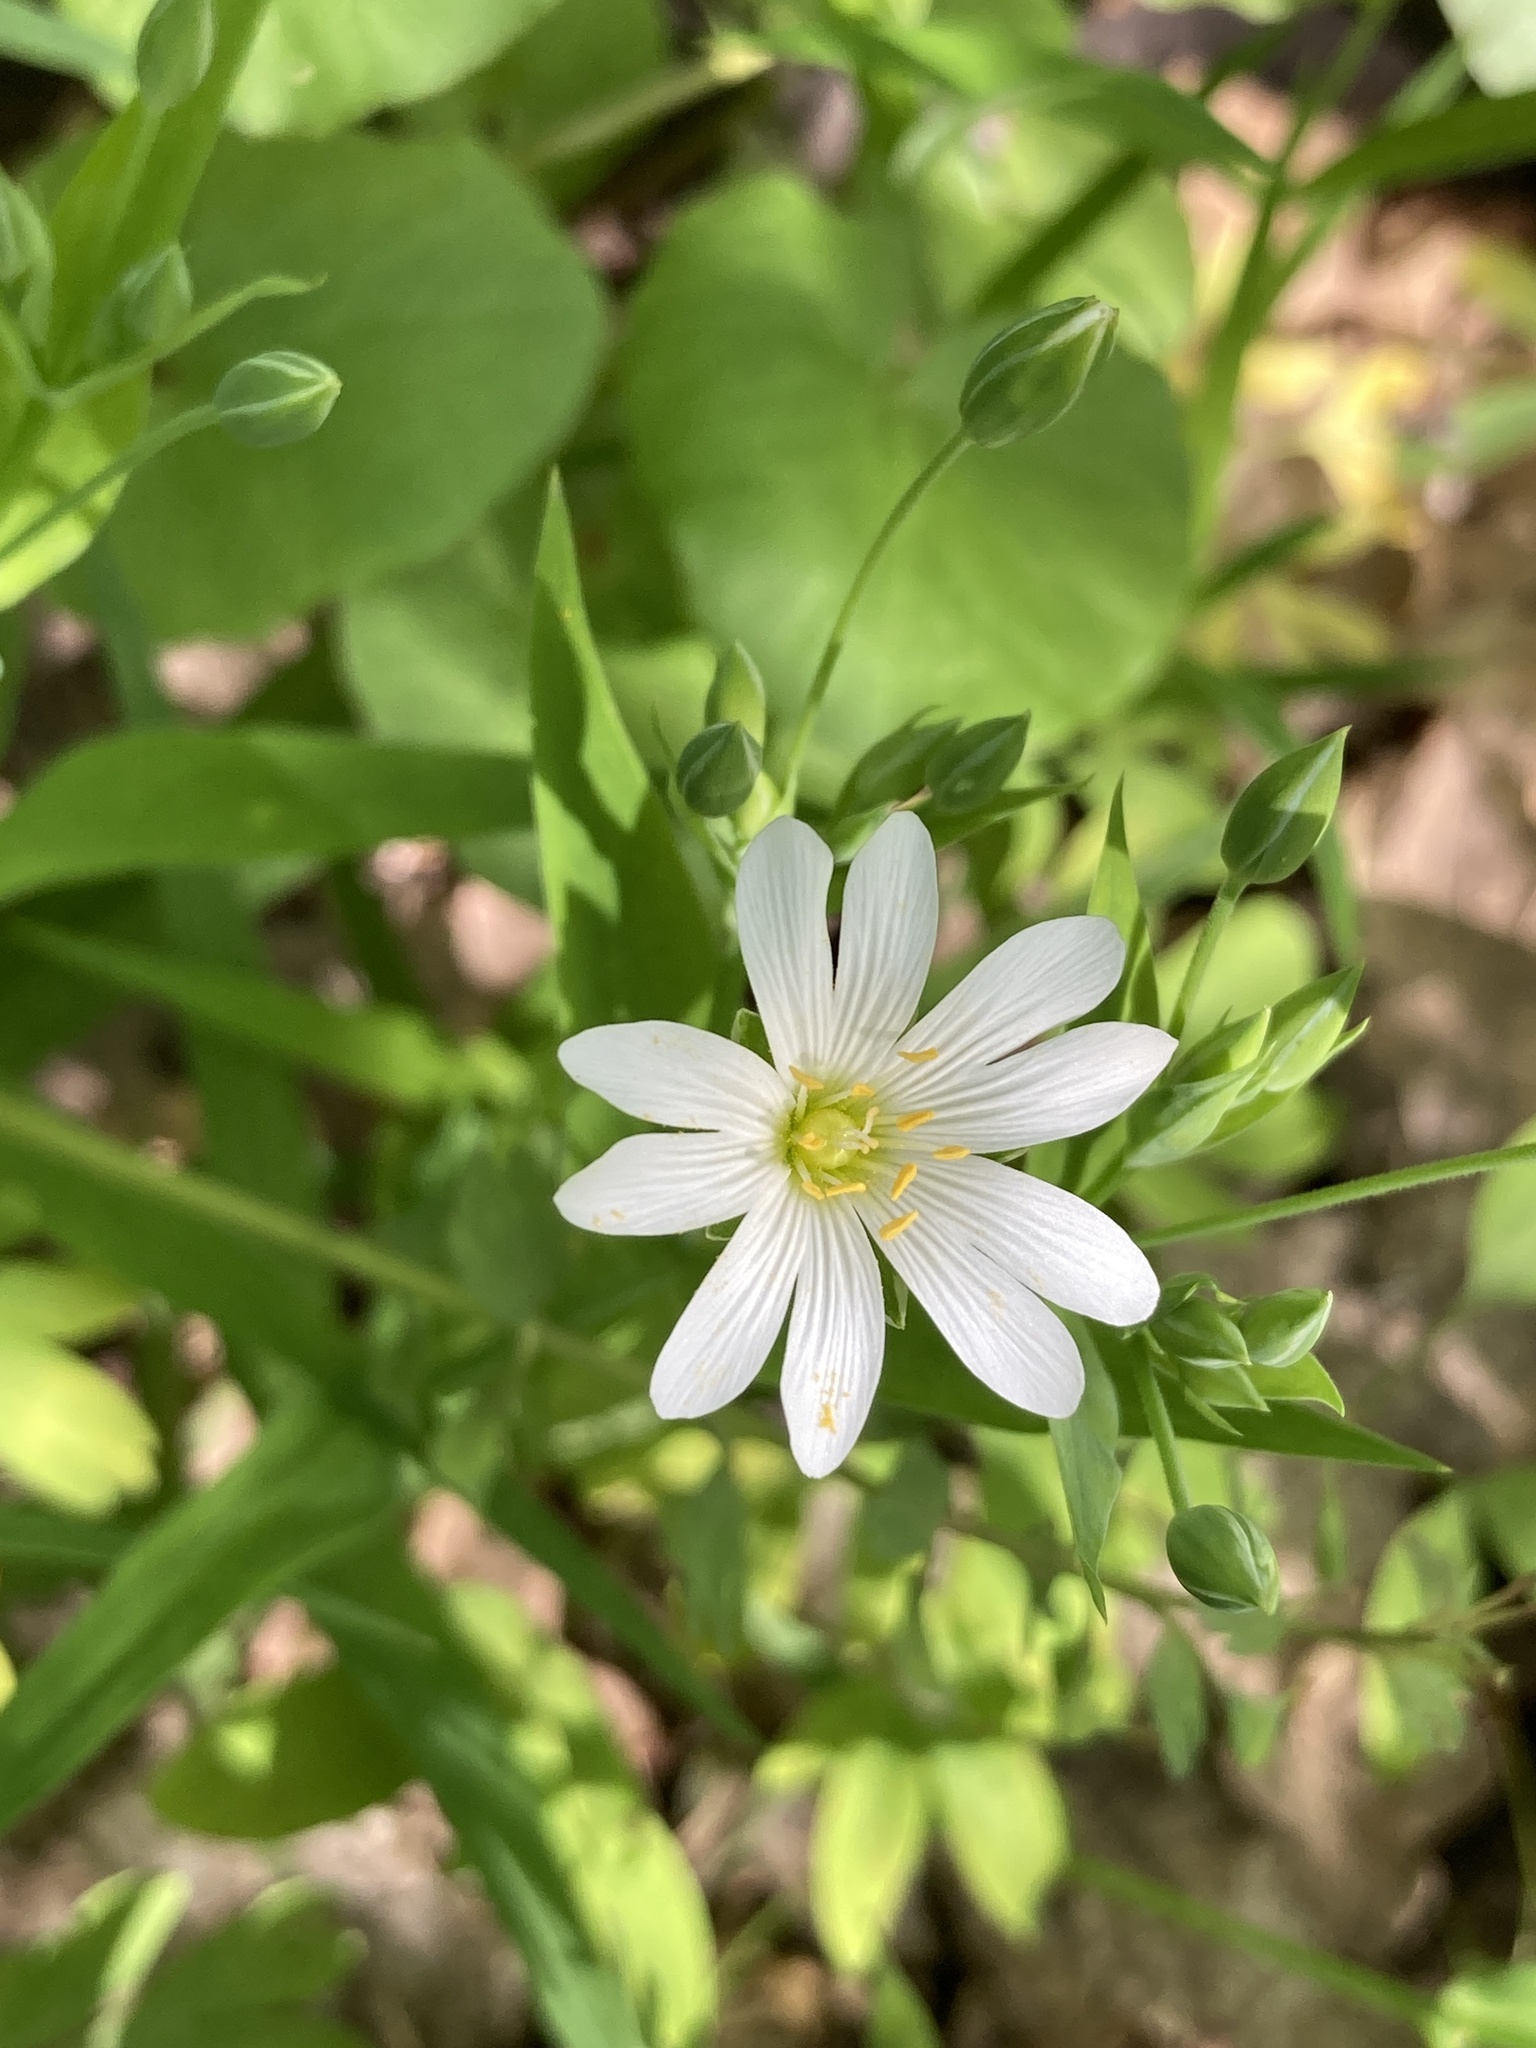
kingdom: Plantae
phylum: Tracheophyta
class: Magnoliopsida
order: Caryophyllales
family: Caryophyllaceae
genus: Rabelera
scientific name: Rabelera holostea
